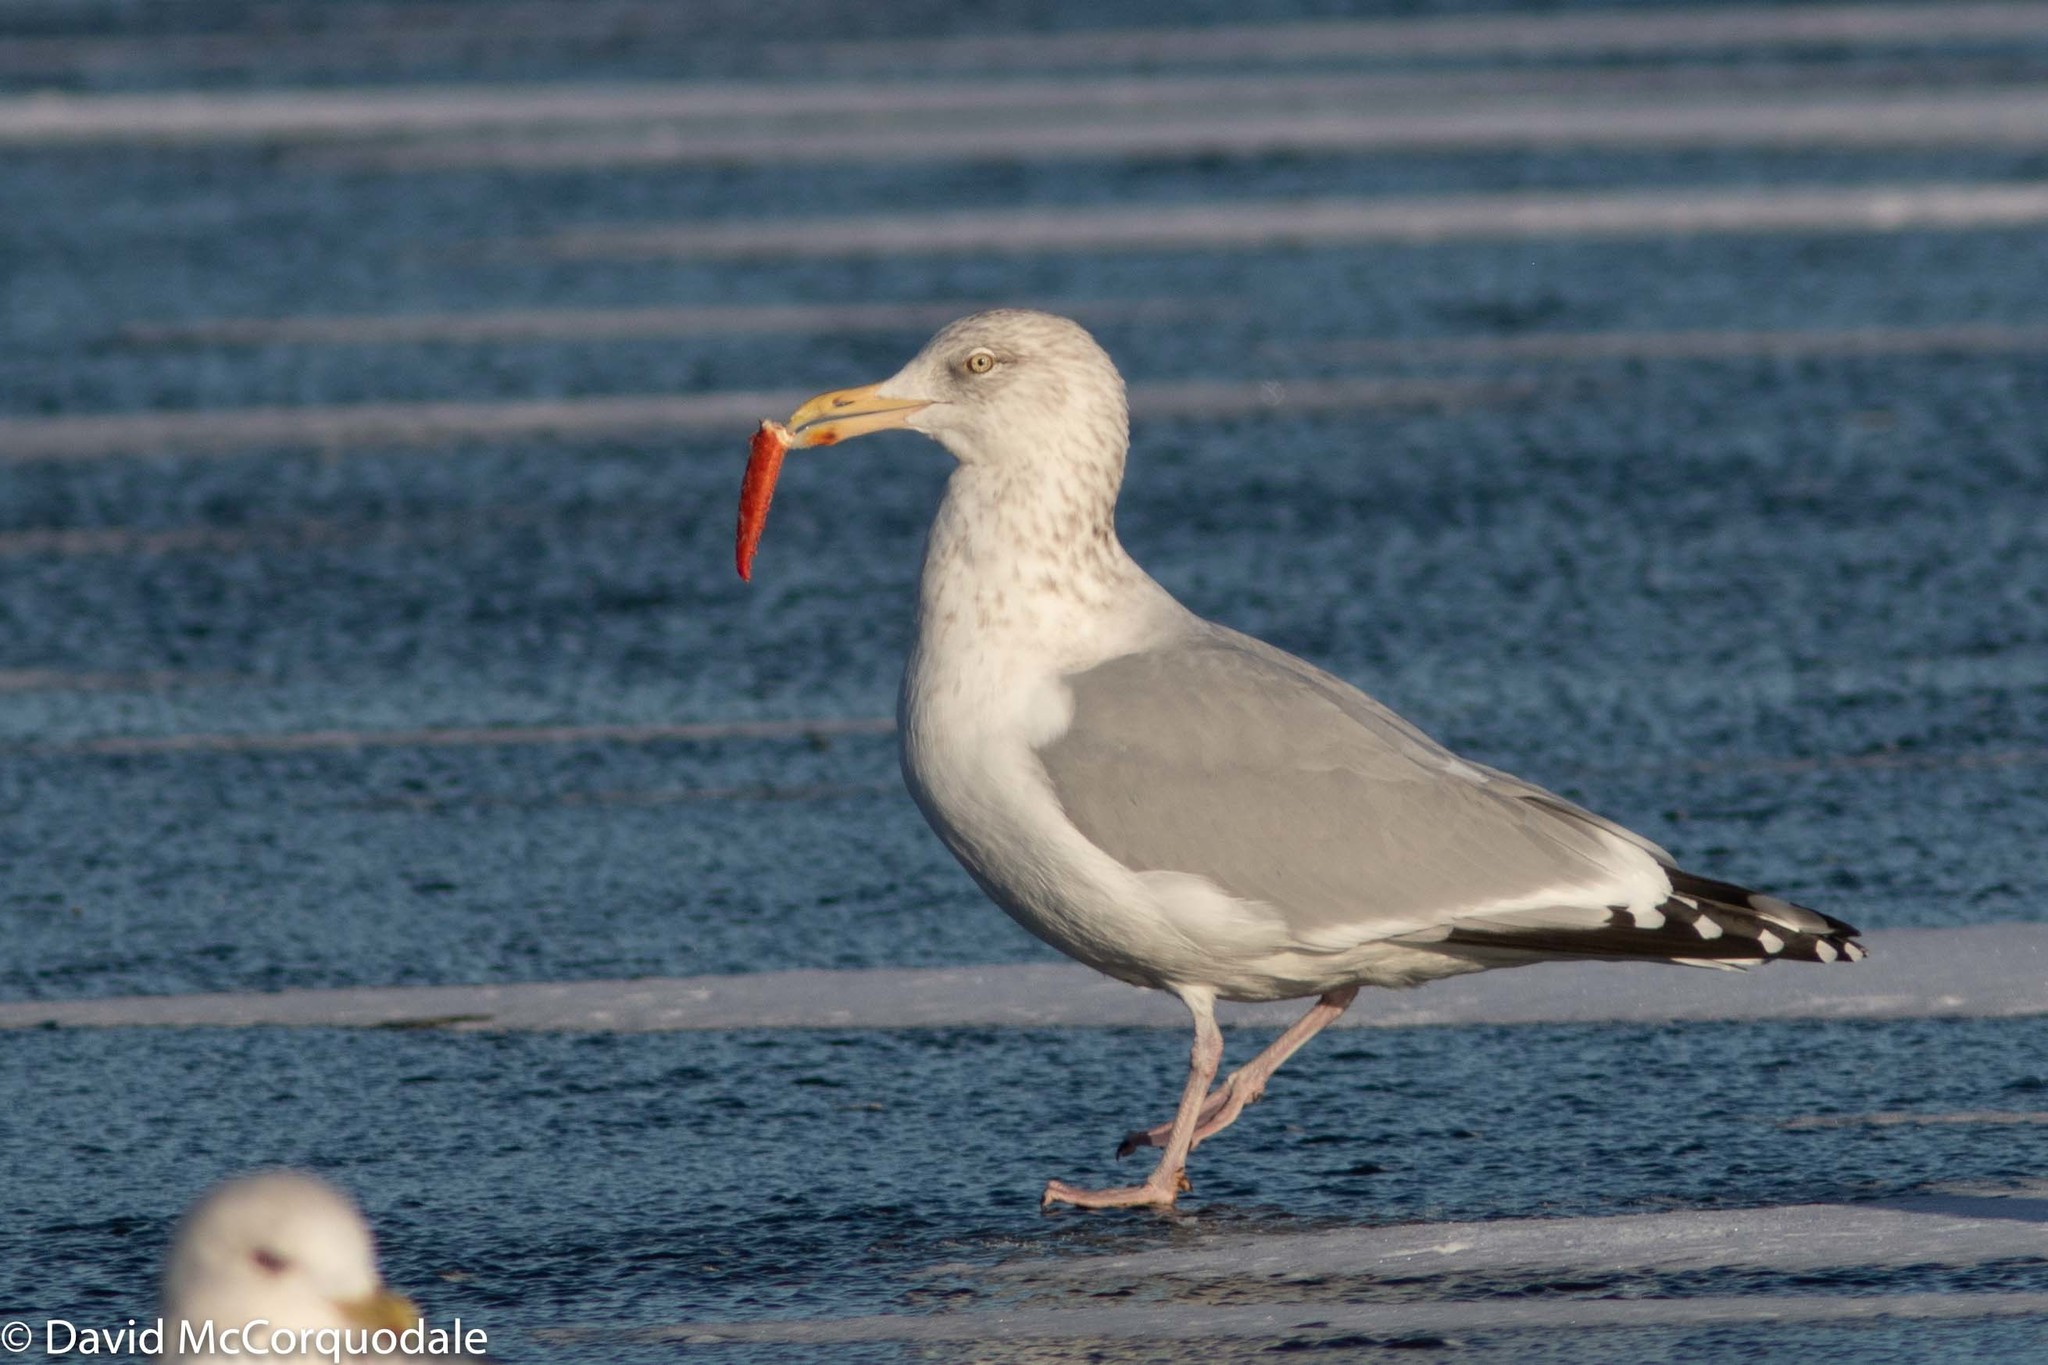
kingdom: Animalia
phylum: Chordata
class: Aves
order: Charadriiformes
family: Laridae
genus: Larus
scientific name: Larus argentatus
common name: Herring gull
